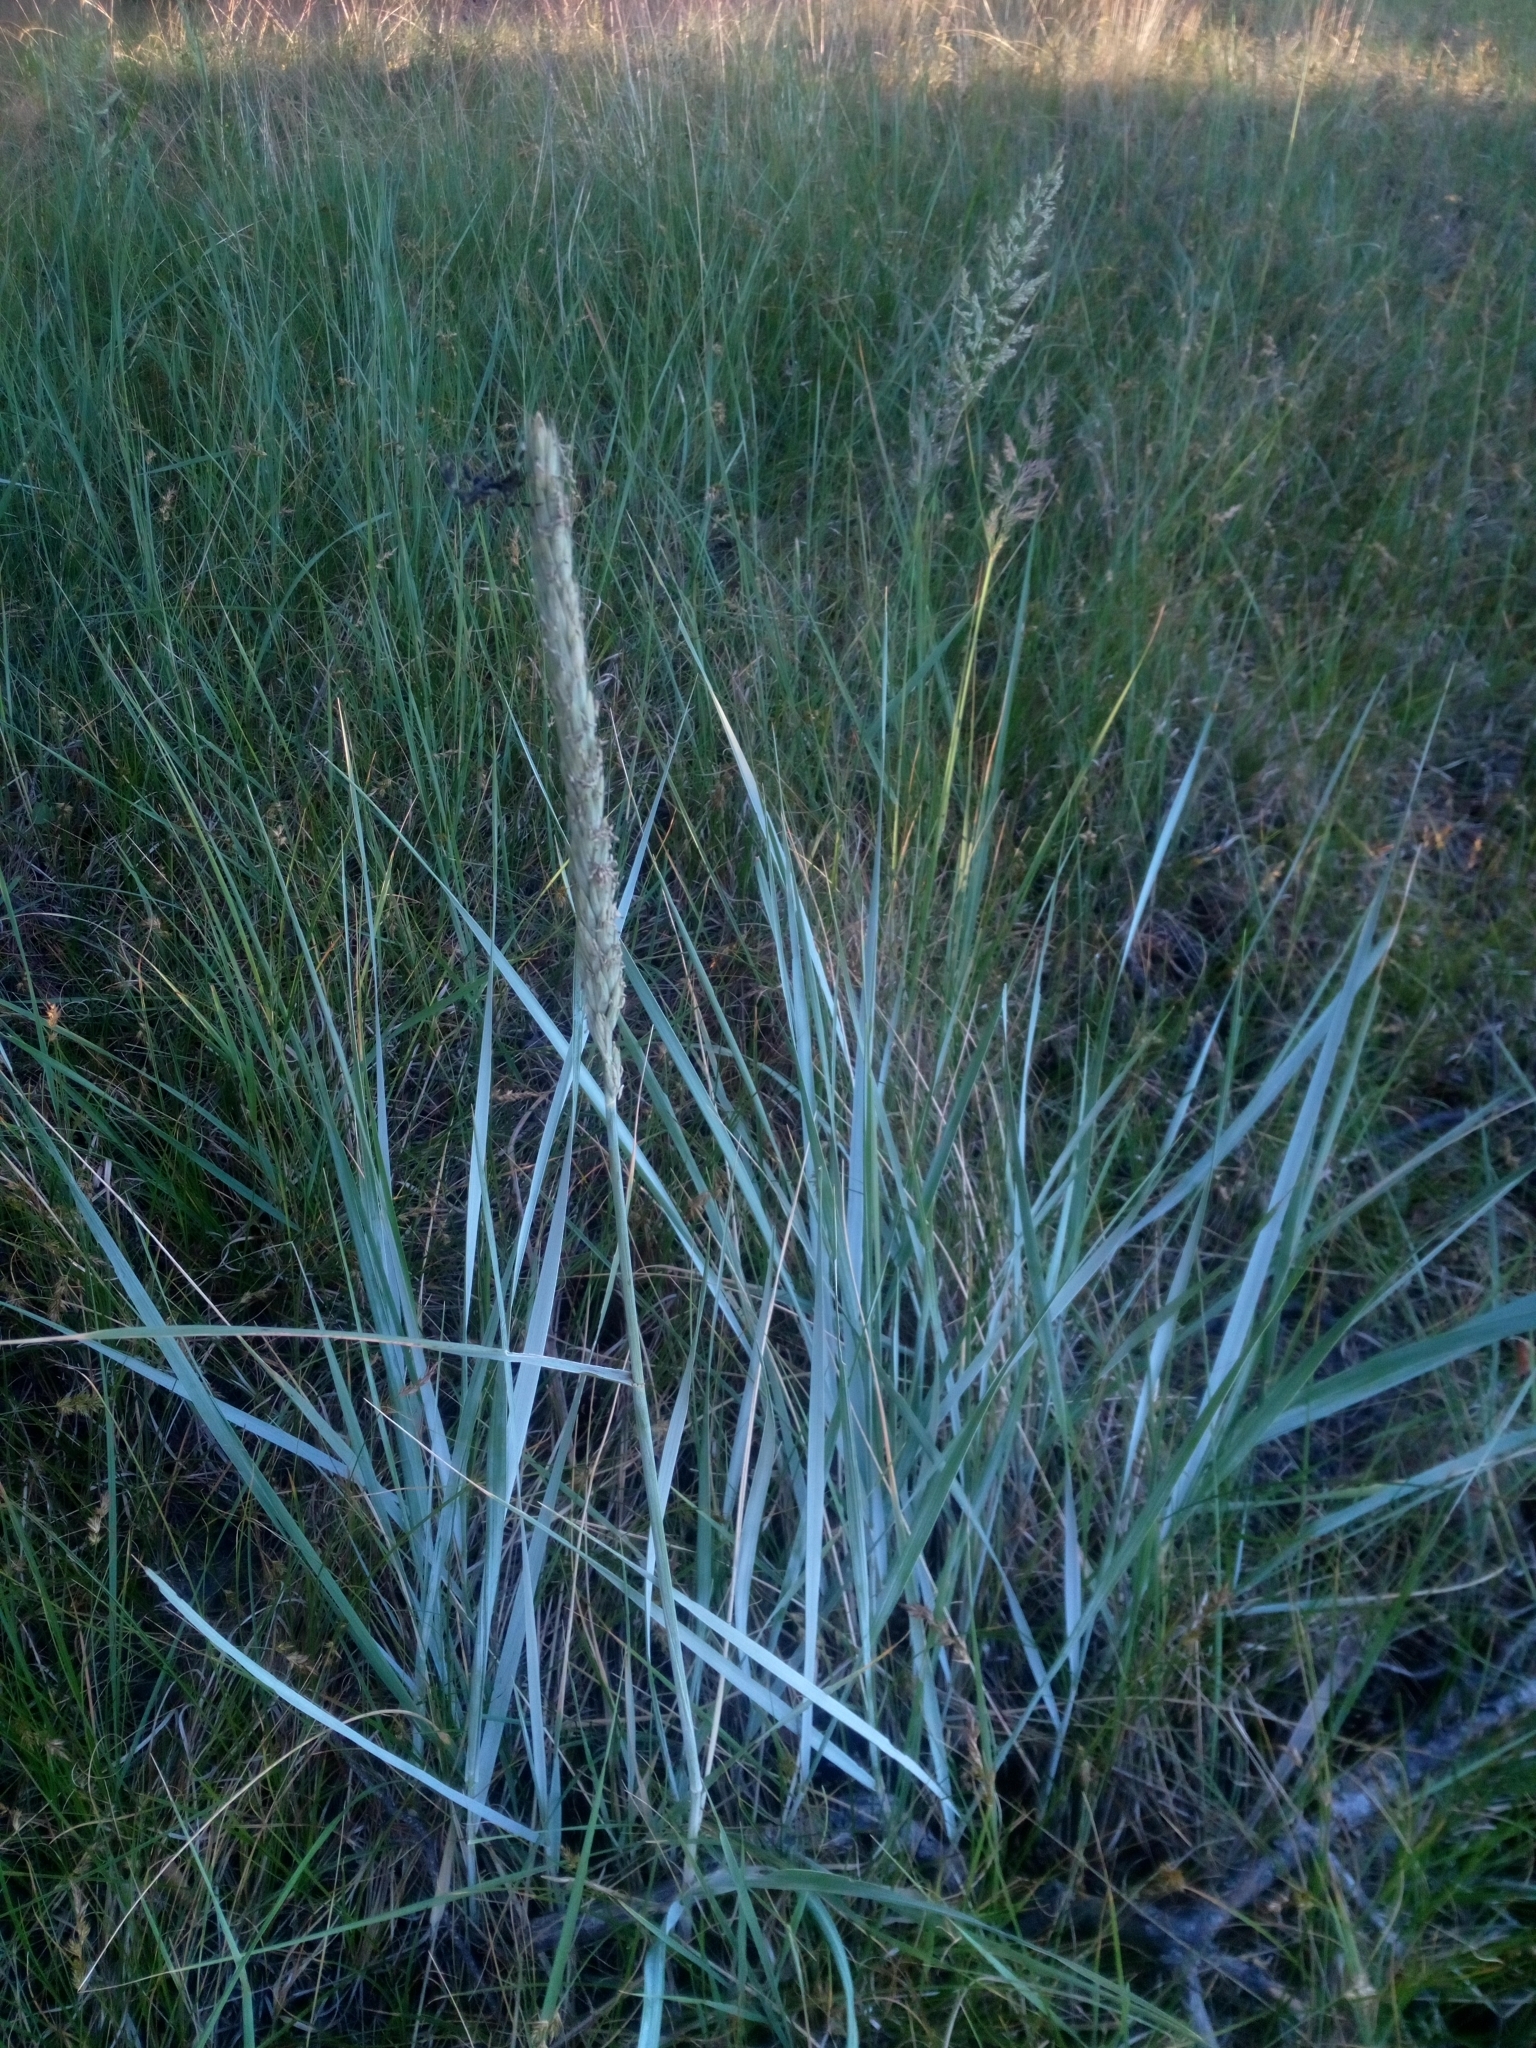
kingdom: Plantae
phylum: Tracheophyta
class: Liliopsida
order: Poales
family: Poaceae
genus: Leymus
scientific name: Leymus arenarius
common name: Lyme-grass
